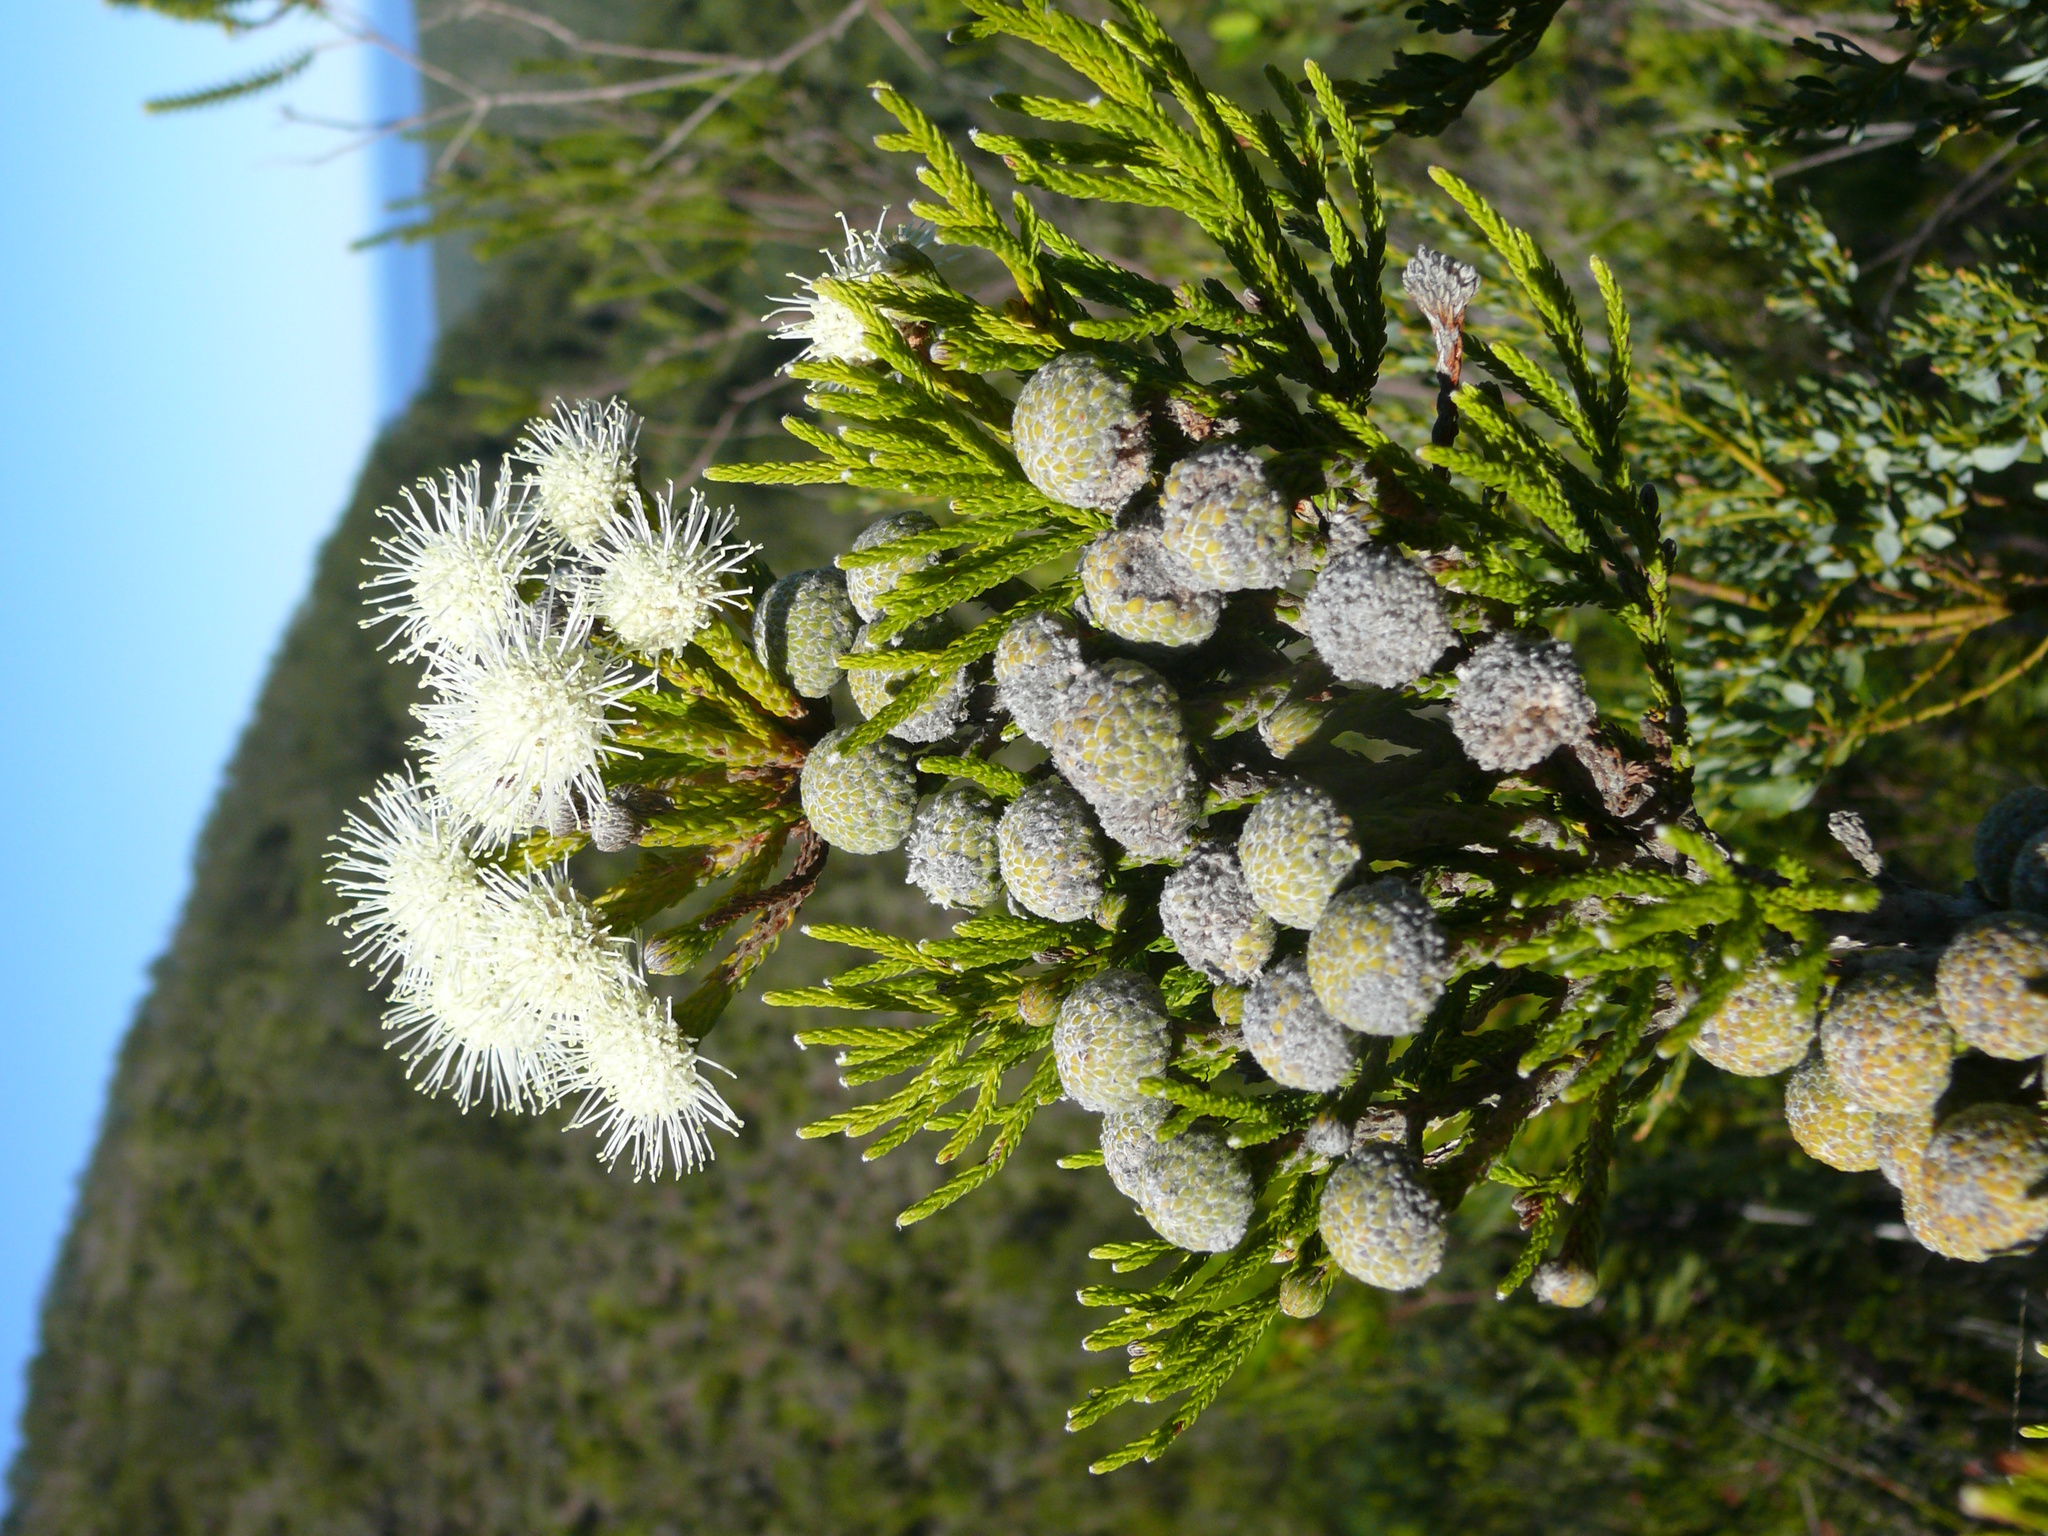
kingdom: Plantae
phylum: Tracheophyta
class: Magnoliopsida
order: Bruniales
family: Bruniaceae
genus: Brunia
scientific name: Brunia noduliflora
